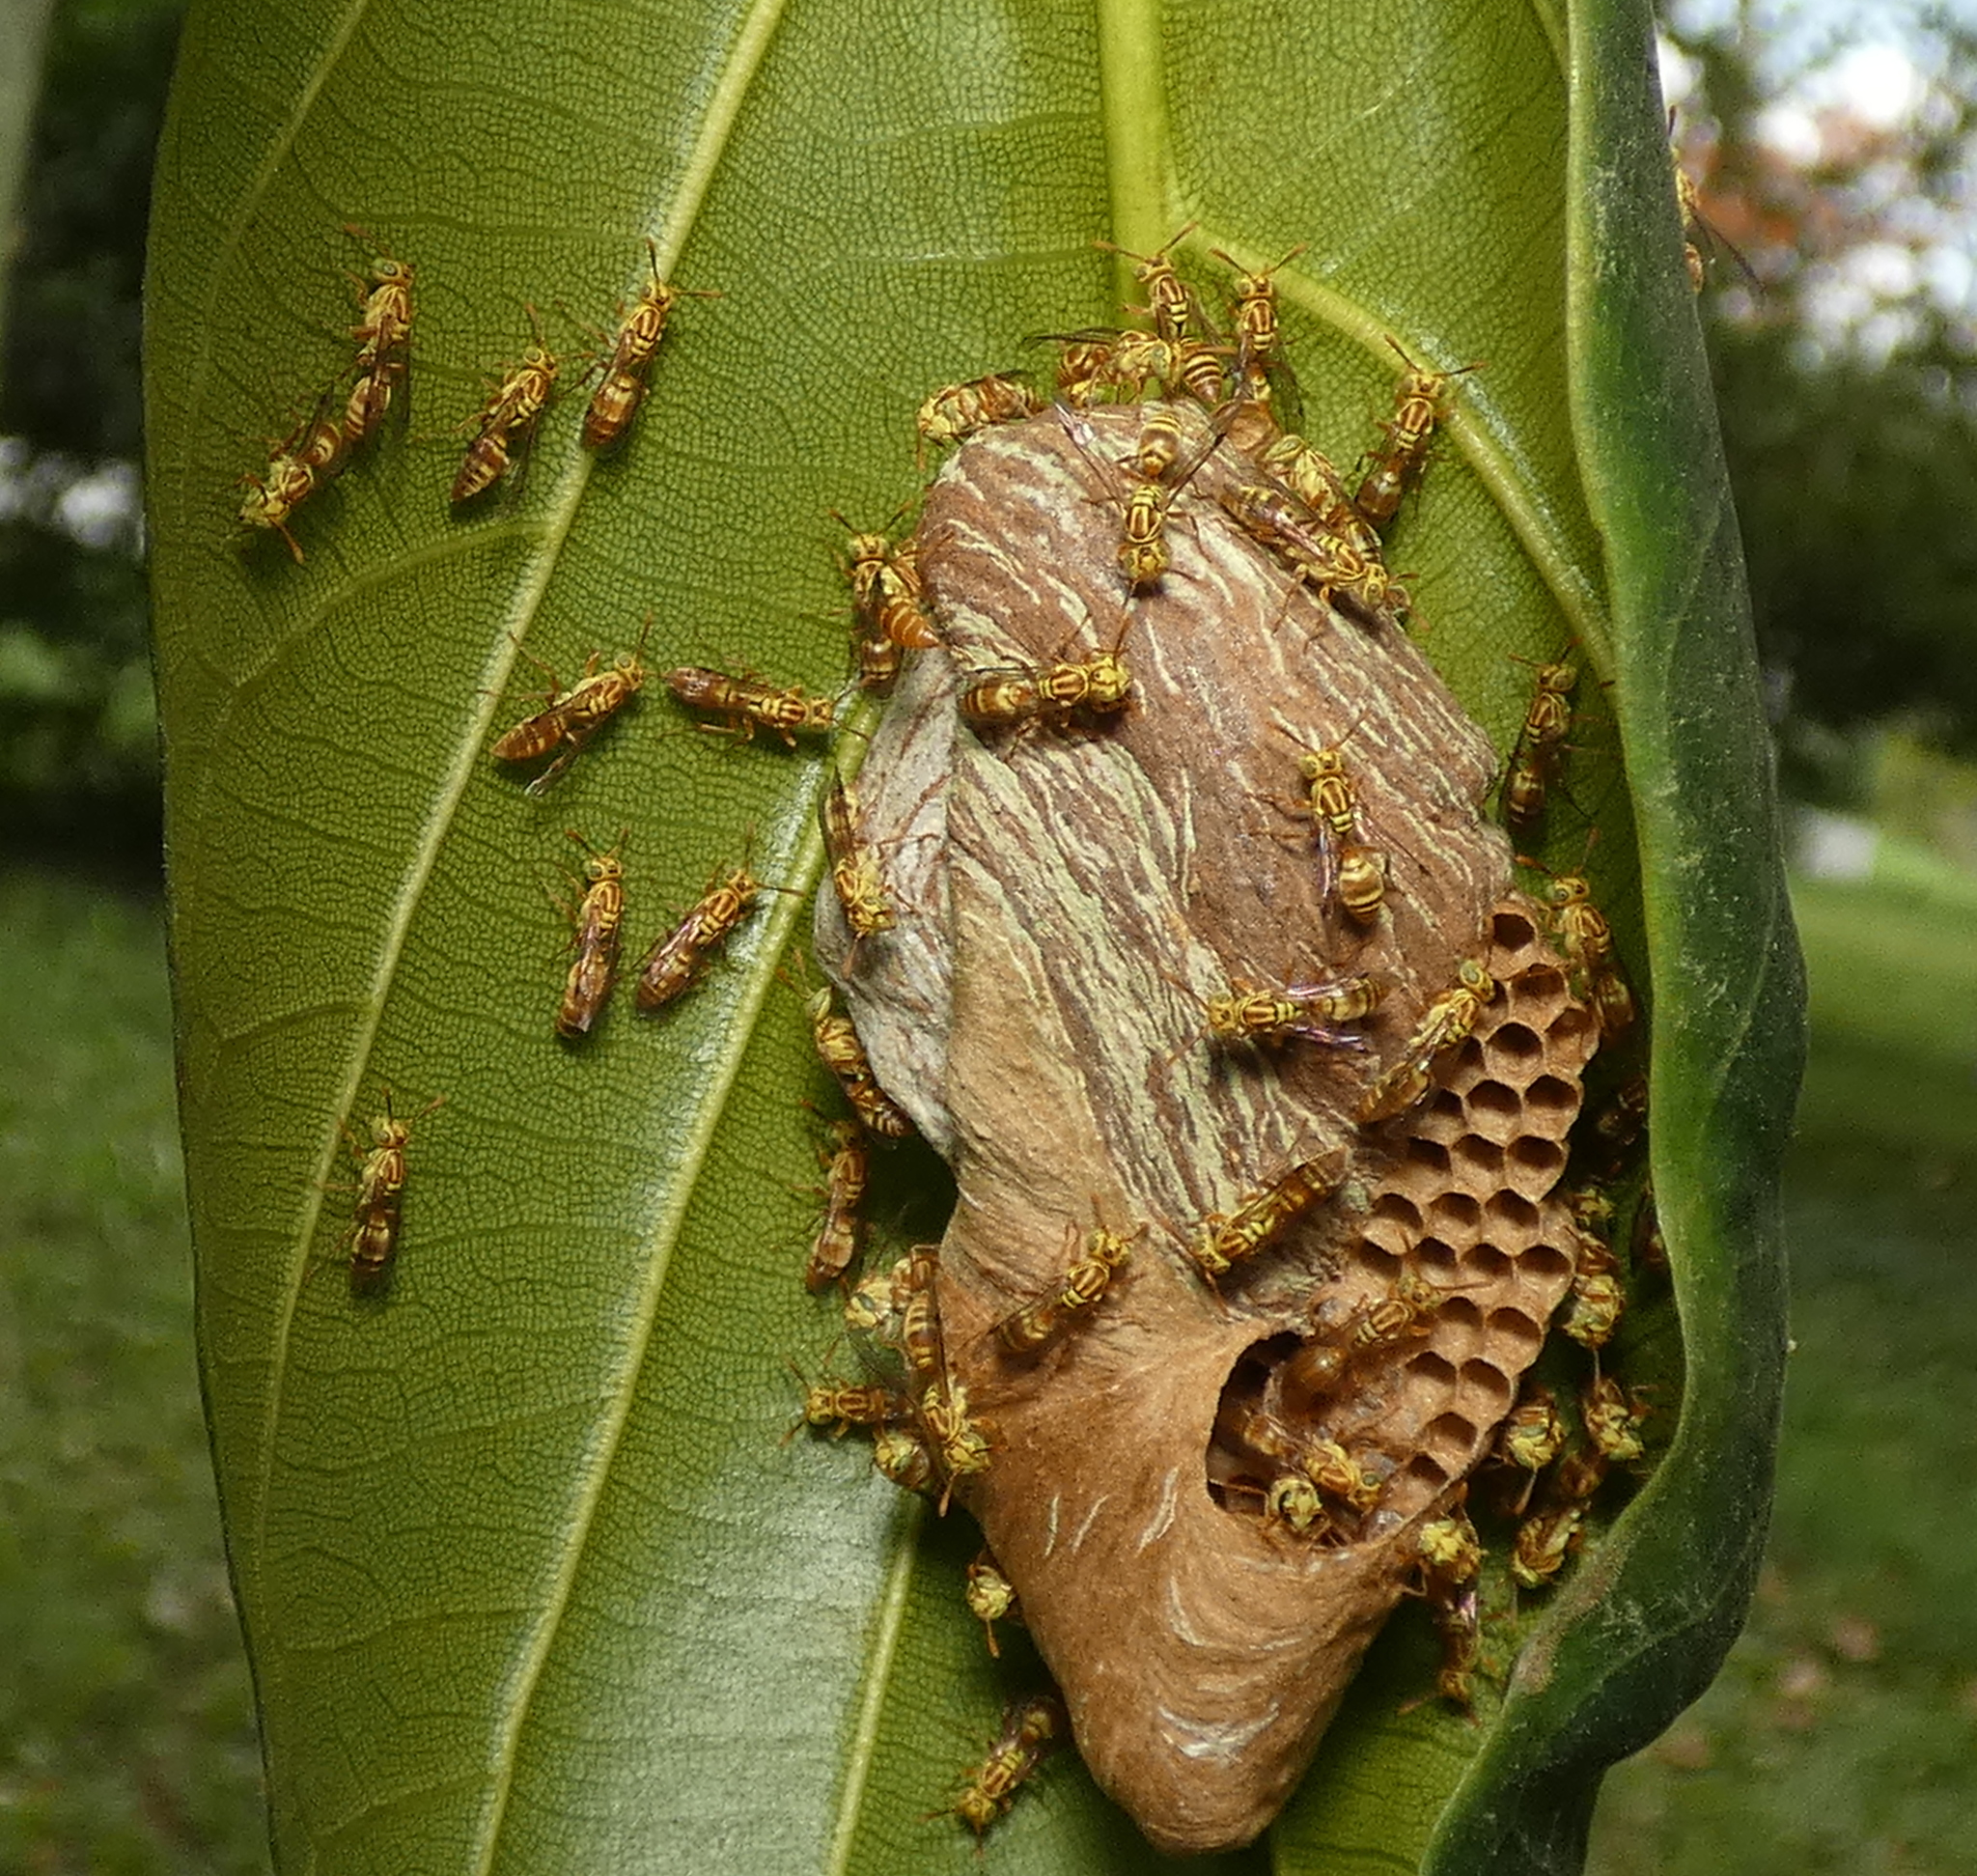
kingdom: Animalia
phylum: Arthropoda
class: Insecta
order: Hymenoptera
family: Vespidae
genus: Protopolybia
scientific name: Protopolybia potiguara
